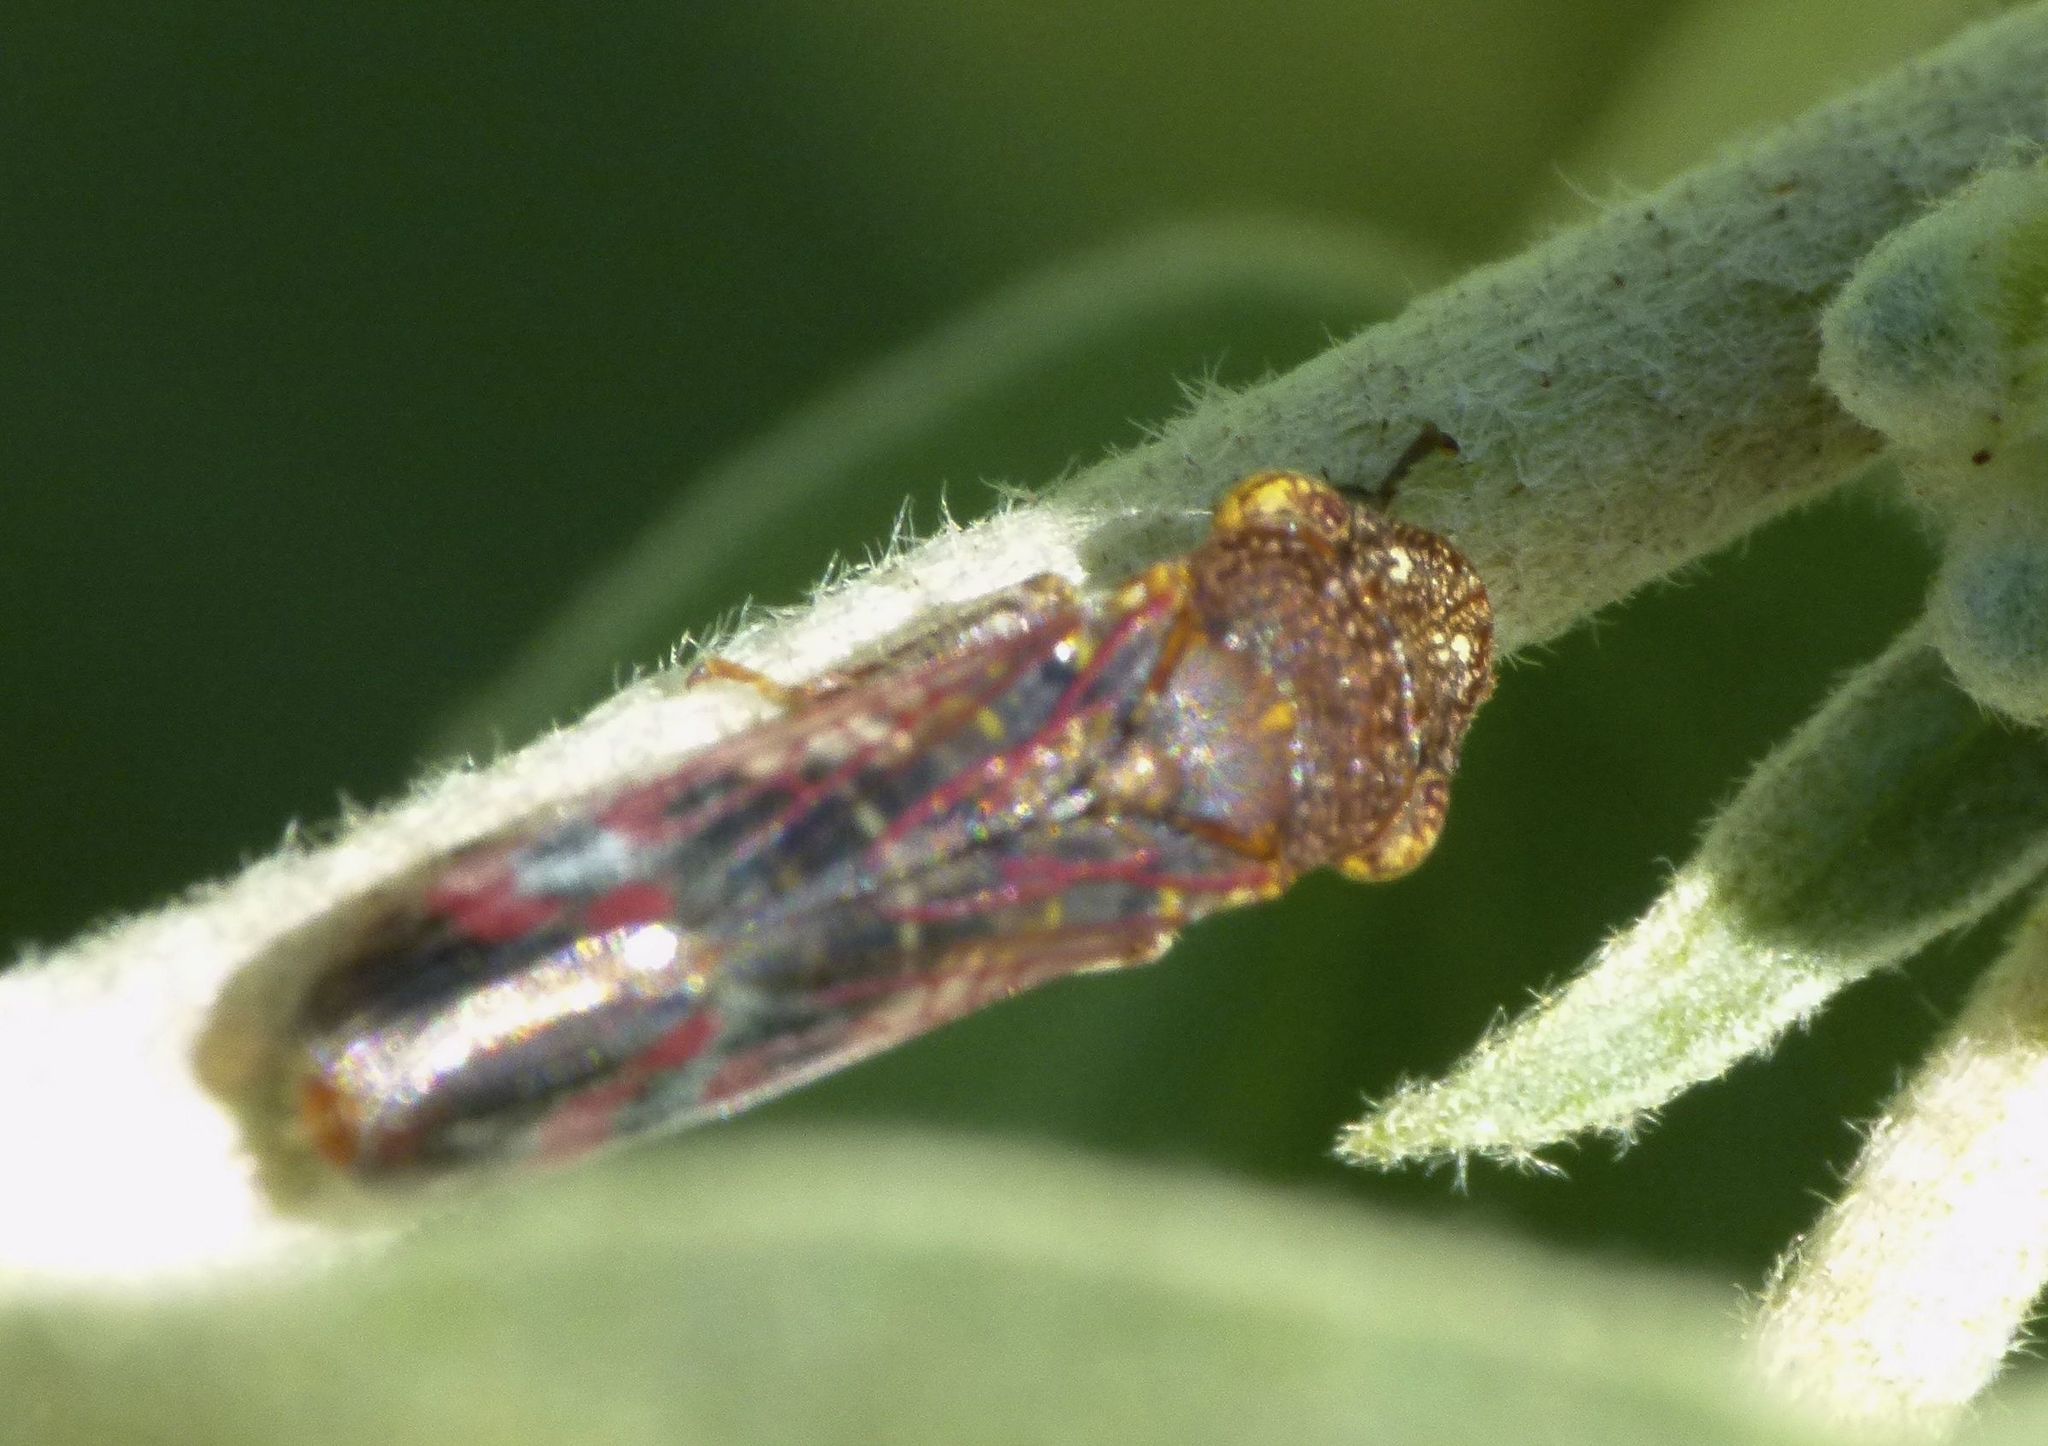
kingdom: Animalia
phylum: Arthropoda
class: Insecta
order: Hemiptera
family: Cicadellidae
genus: Homalodisca
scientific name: Homalodisca vitripennis
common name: Glassy-winged sharpshooter
